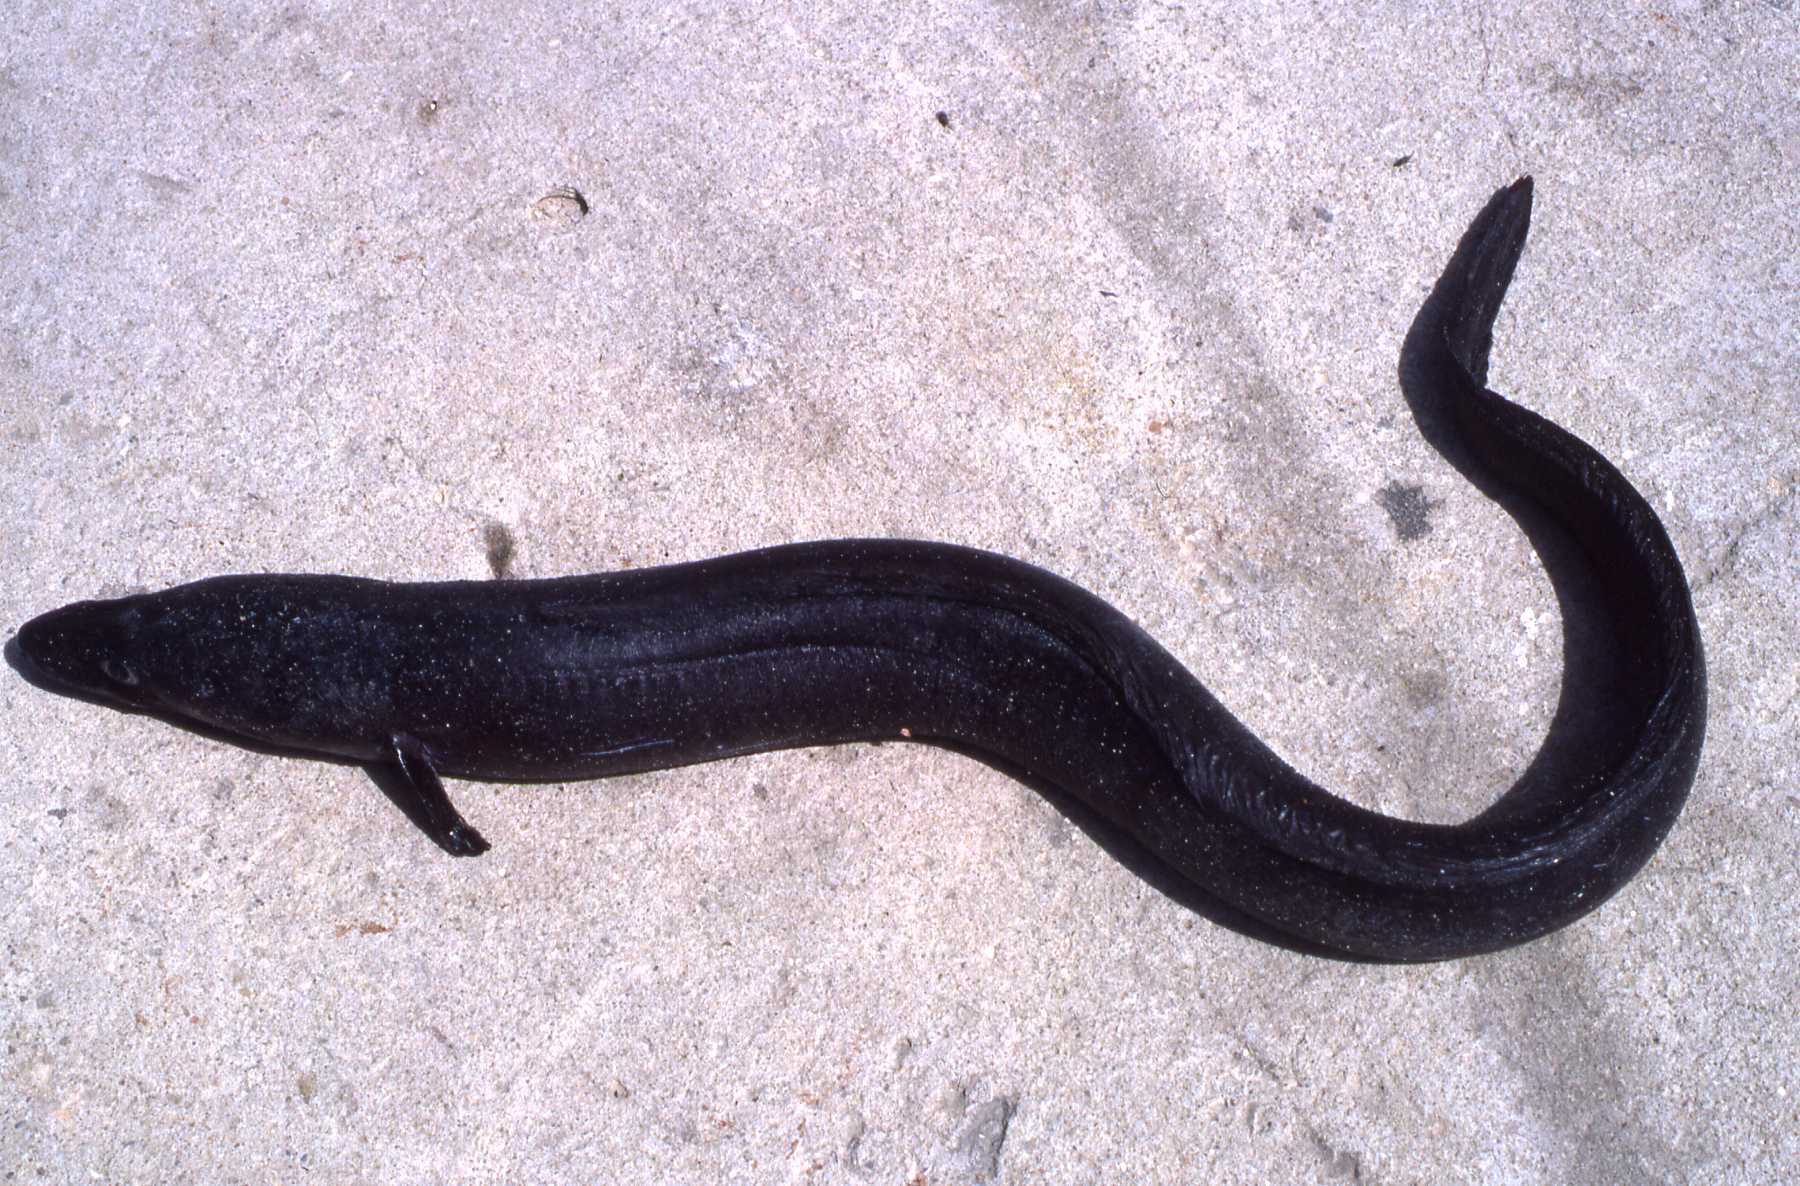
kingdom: Animalia
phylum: Chordata
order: Anguilliformes
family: Congridae
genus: Conger
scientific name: Conger conger
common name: Conger eel
